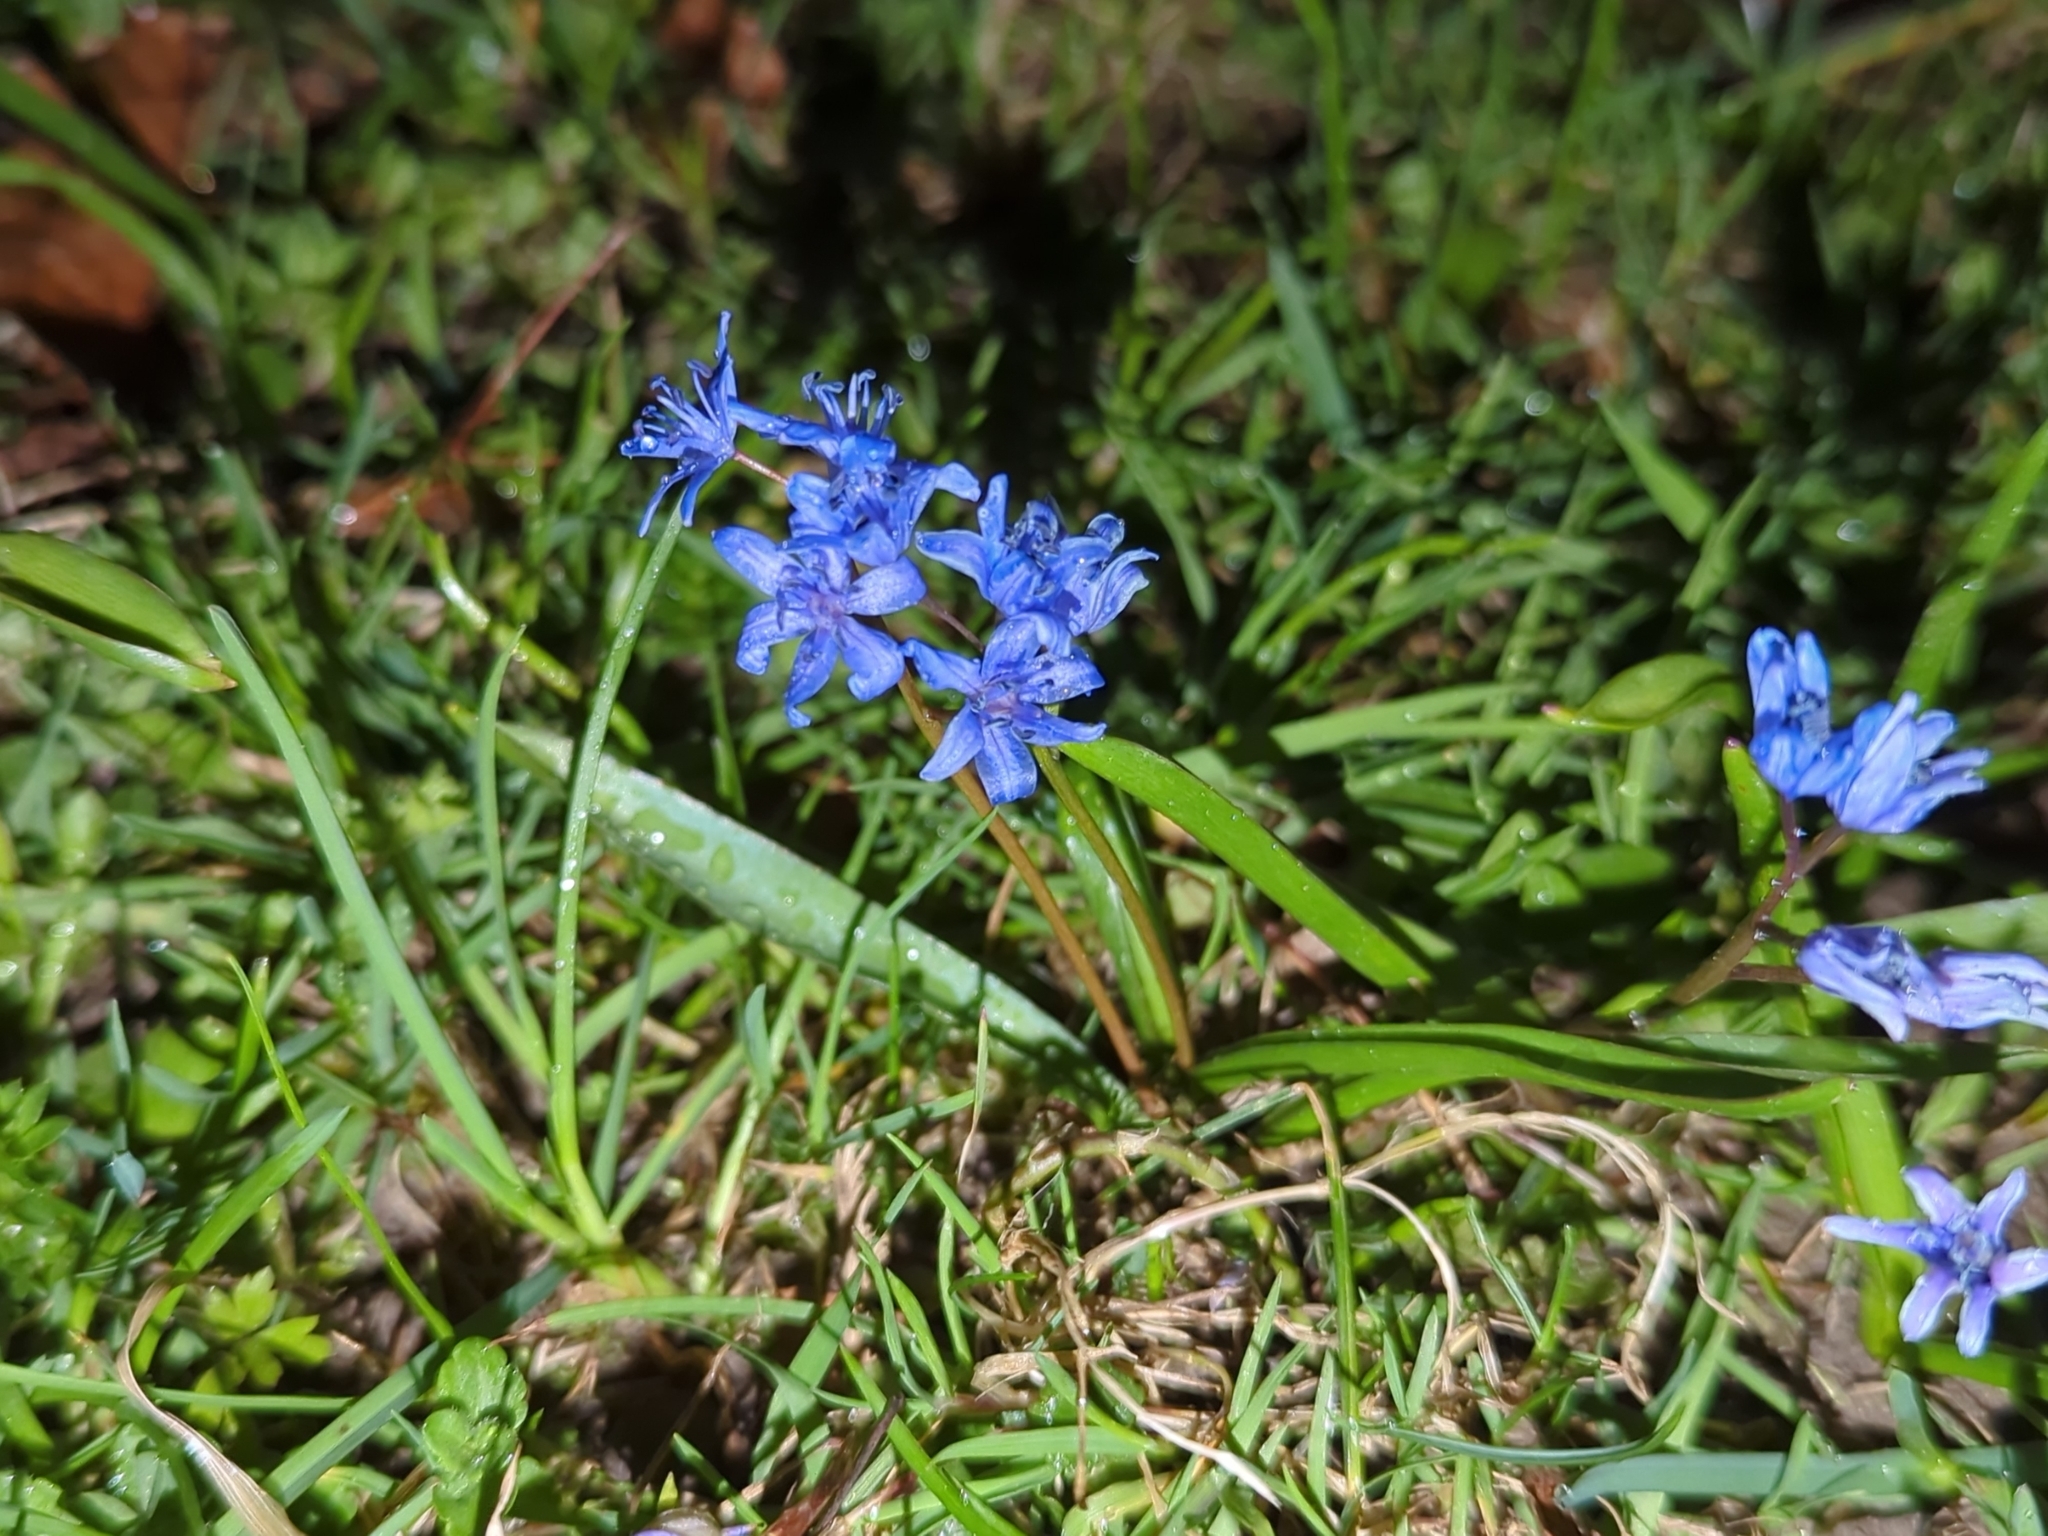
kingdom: Plantae
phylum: Tracheophyta
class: Liliopsida
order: Asparagales
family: Asparagaceae
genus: Scilla
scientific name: Scilla bifolia
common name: Alpine squill
